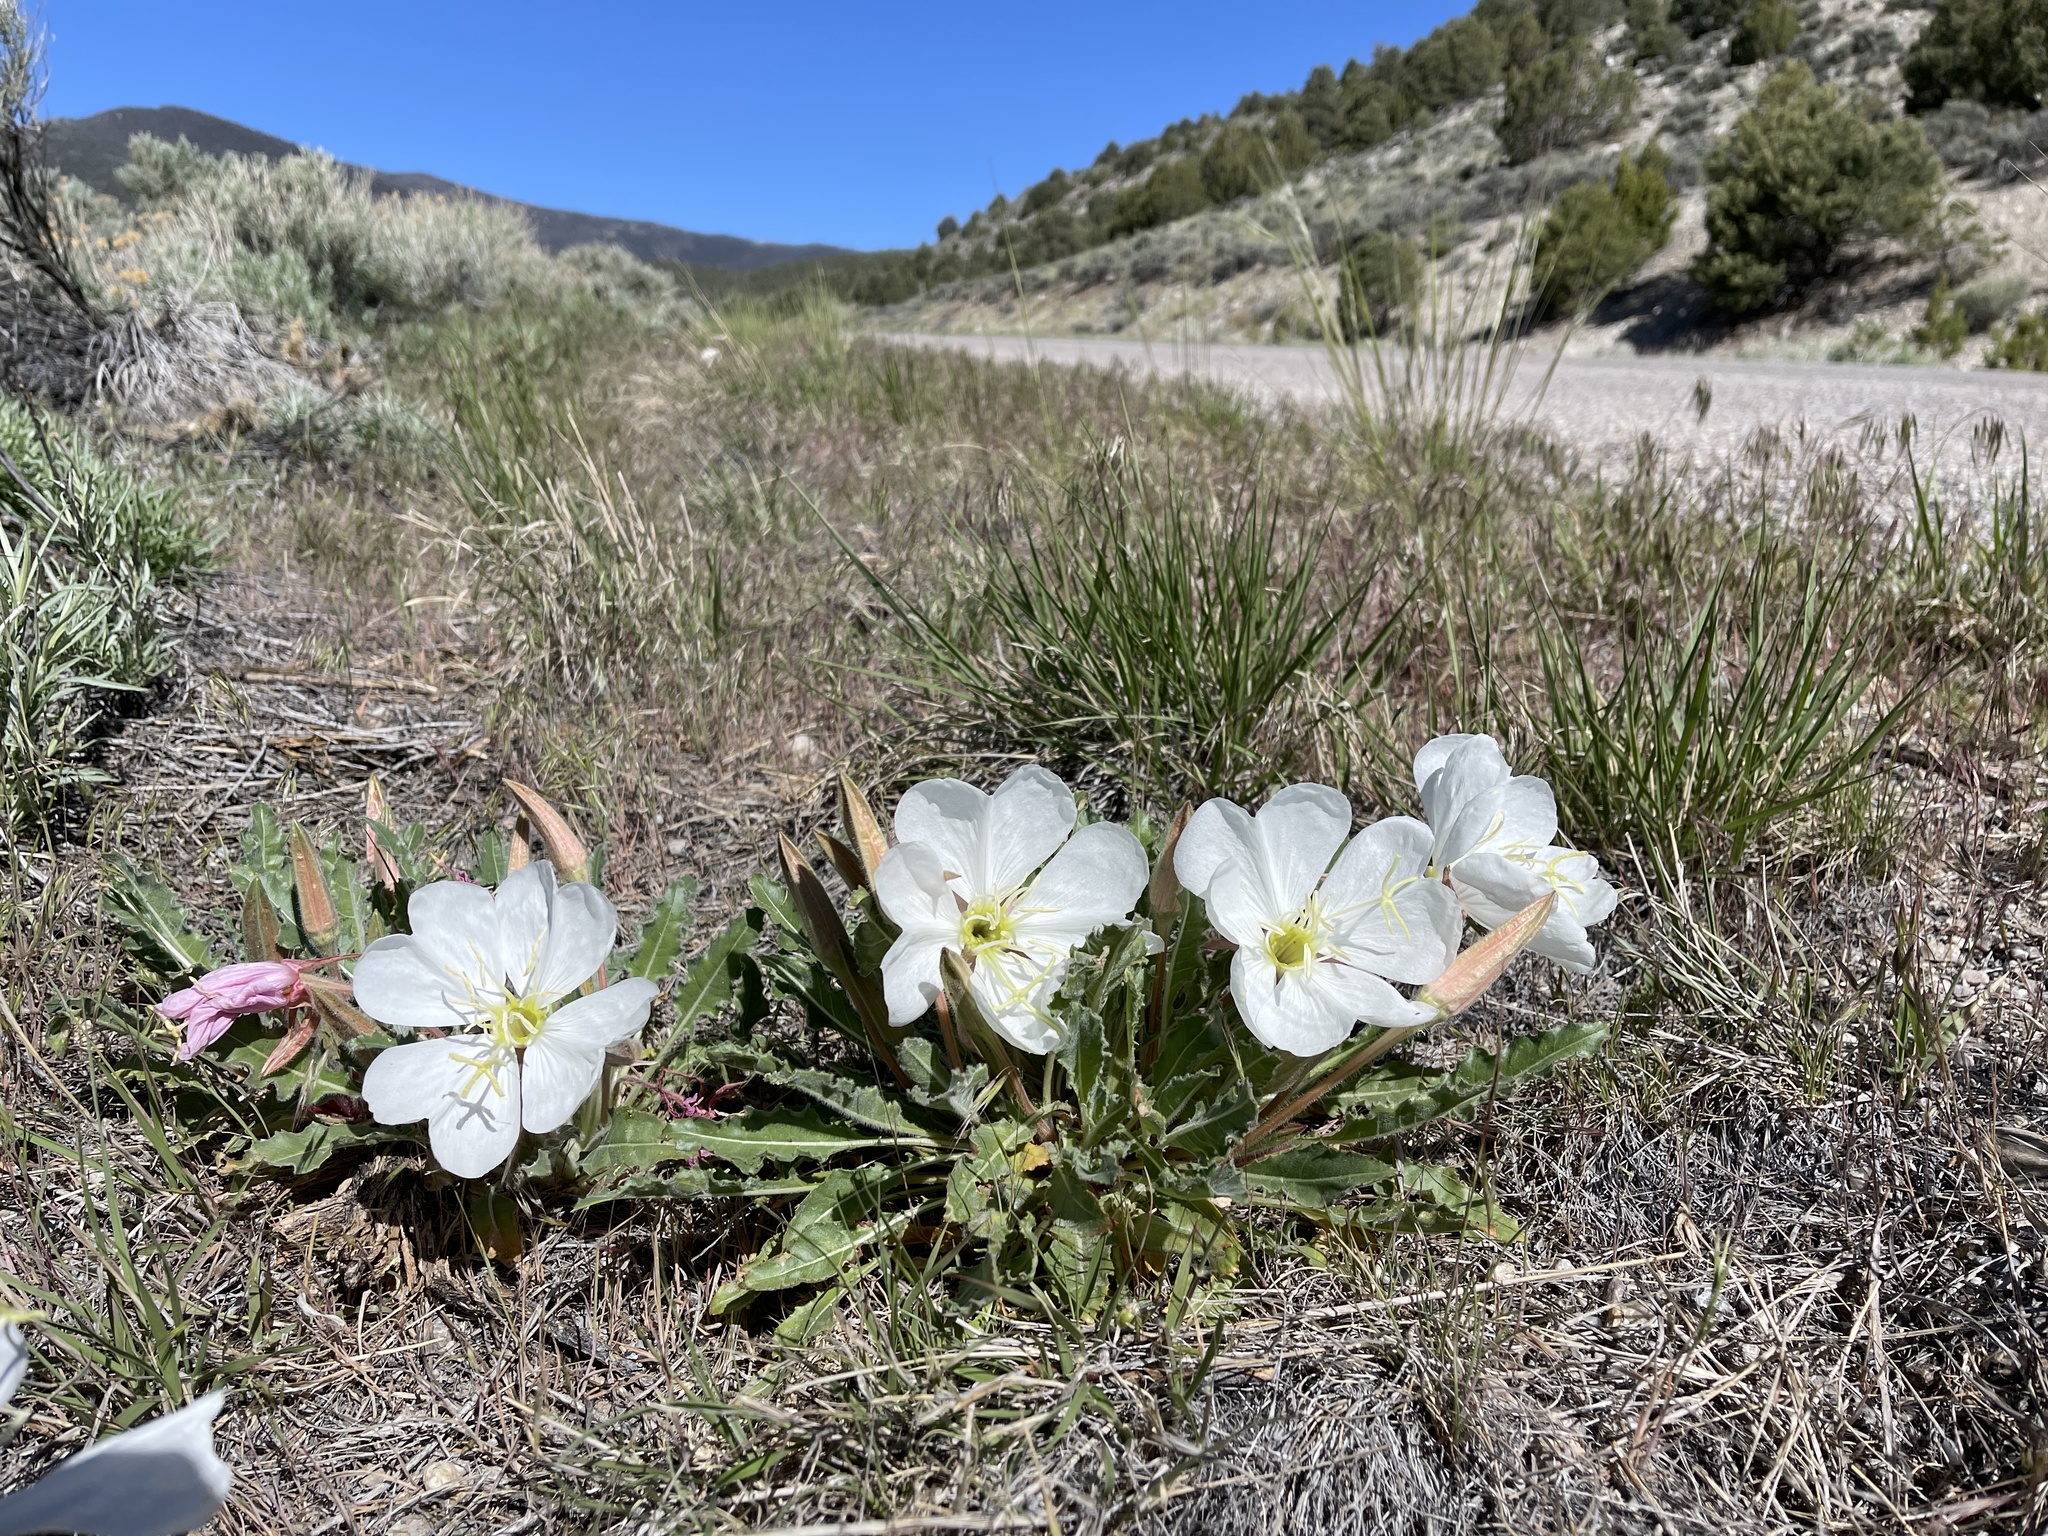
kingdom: Plantae
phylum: Tracheophyta
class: Magnoliopsida
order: Myrtales
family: Onagraceae
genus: Oenothera
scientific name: Oenothera cespitosa
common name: Tufted evening-primrose
